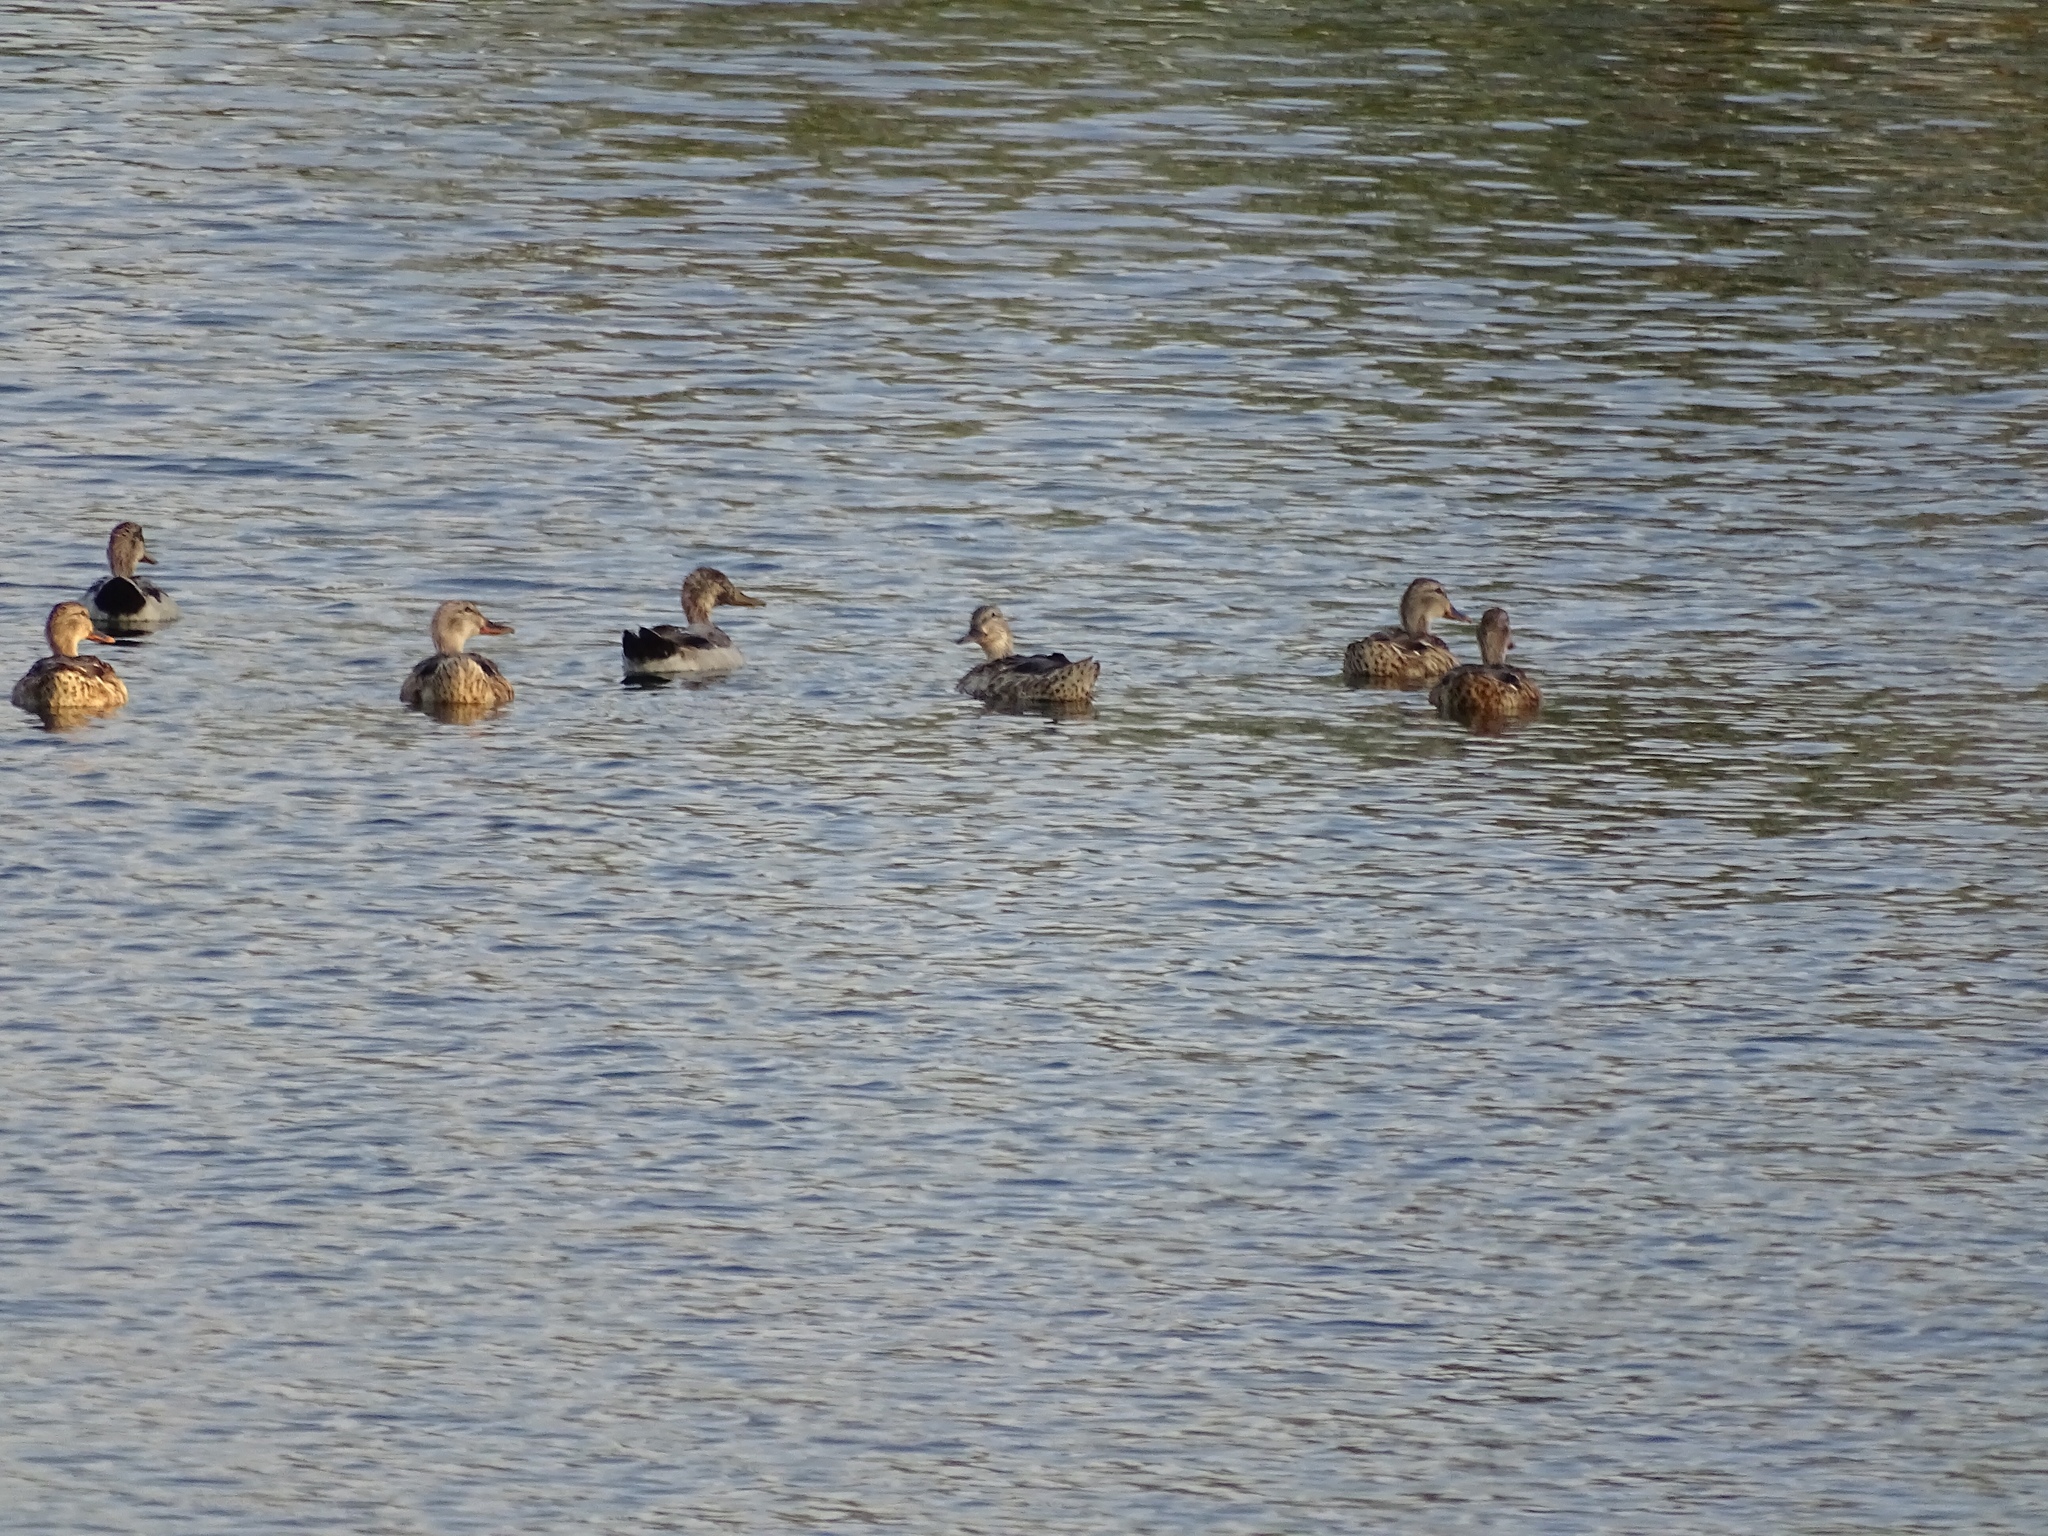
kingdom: Animalia
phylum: Chordata
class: Aves
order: Anseriformes
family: Anatidae
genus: Anas
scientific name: Anas platyrhynchos
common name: Mallard
